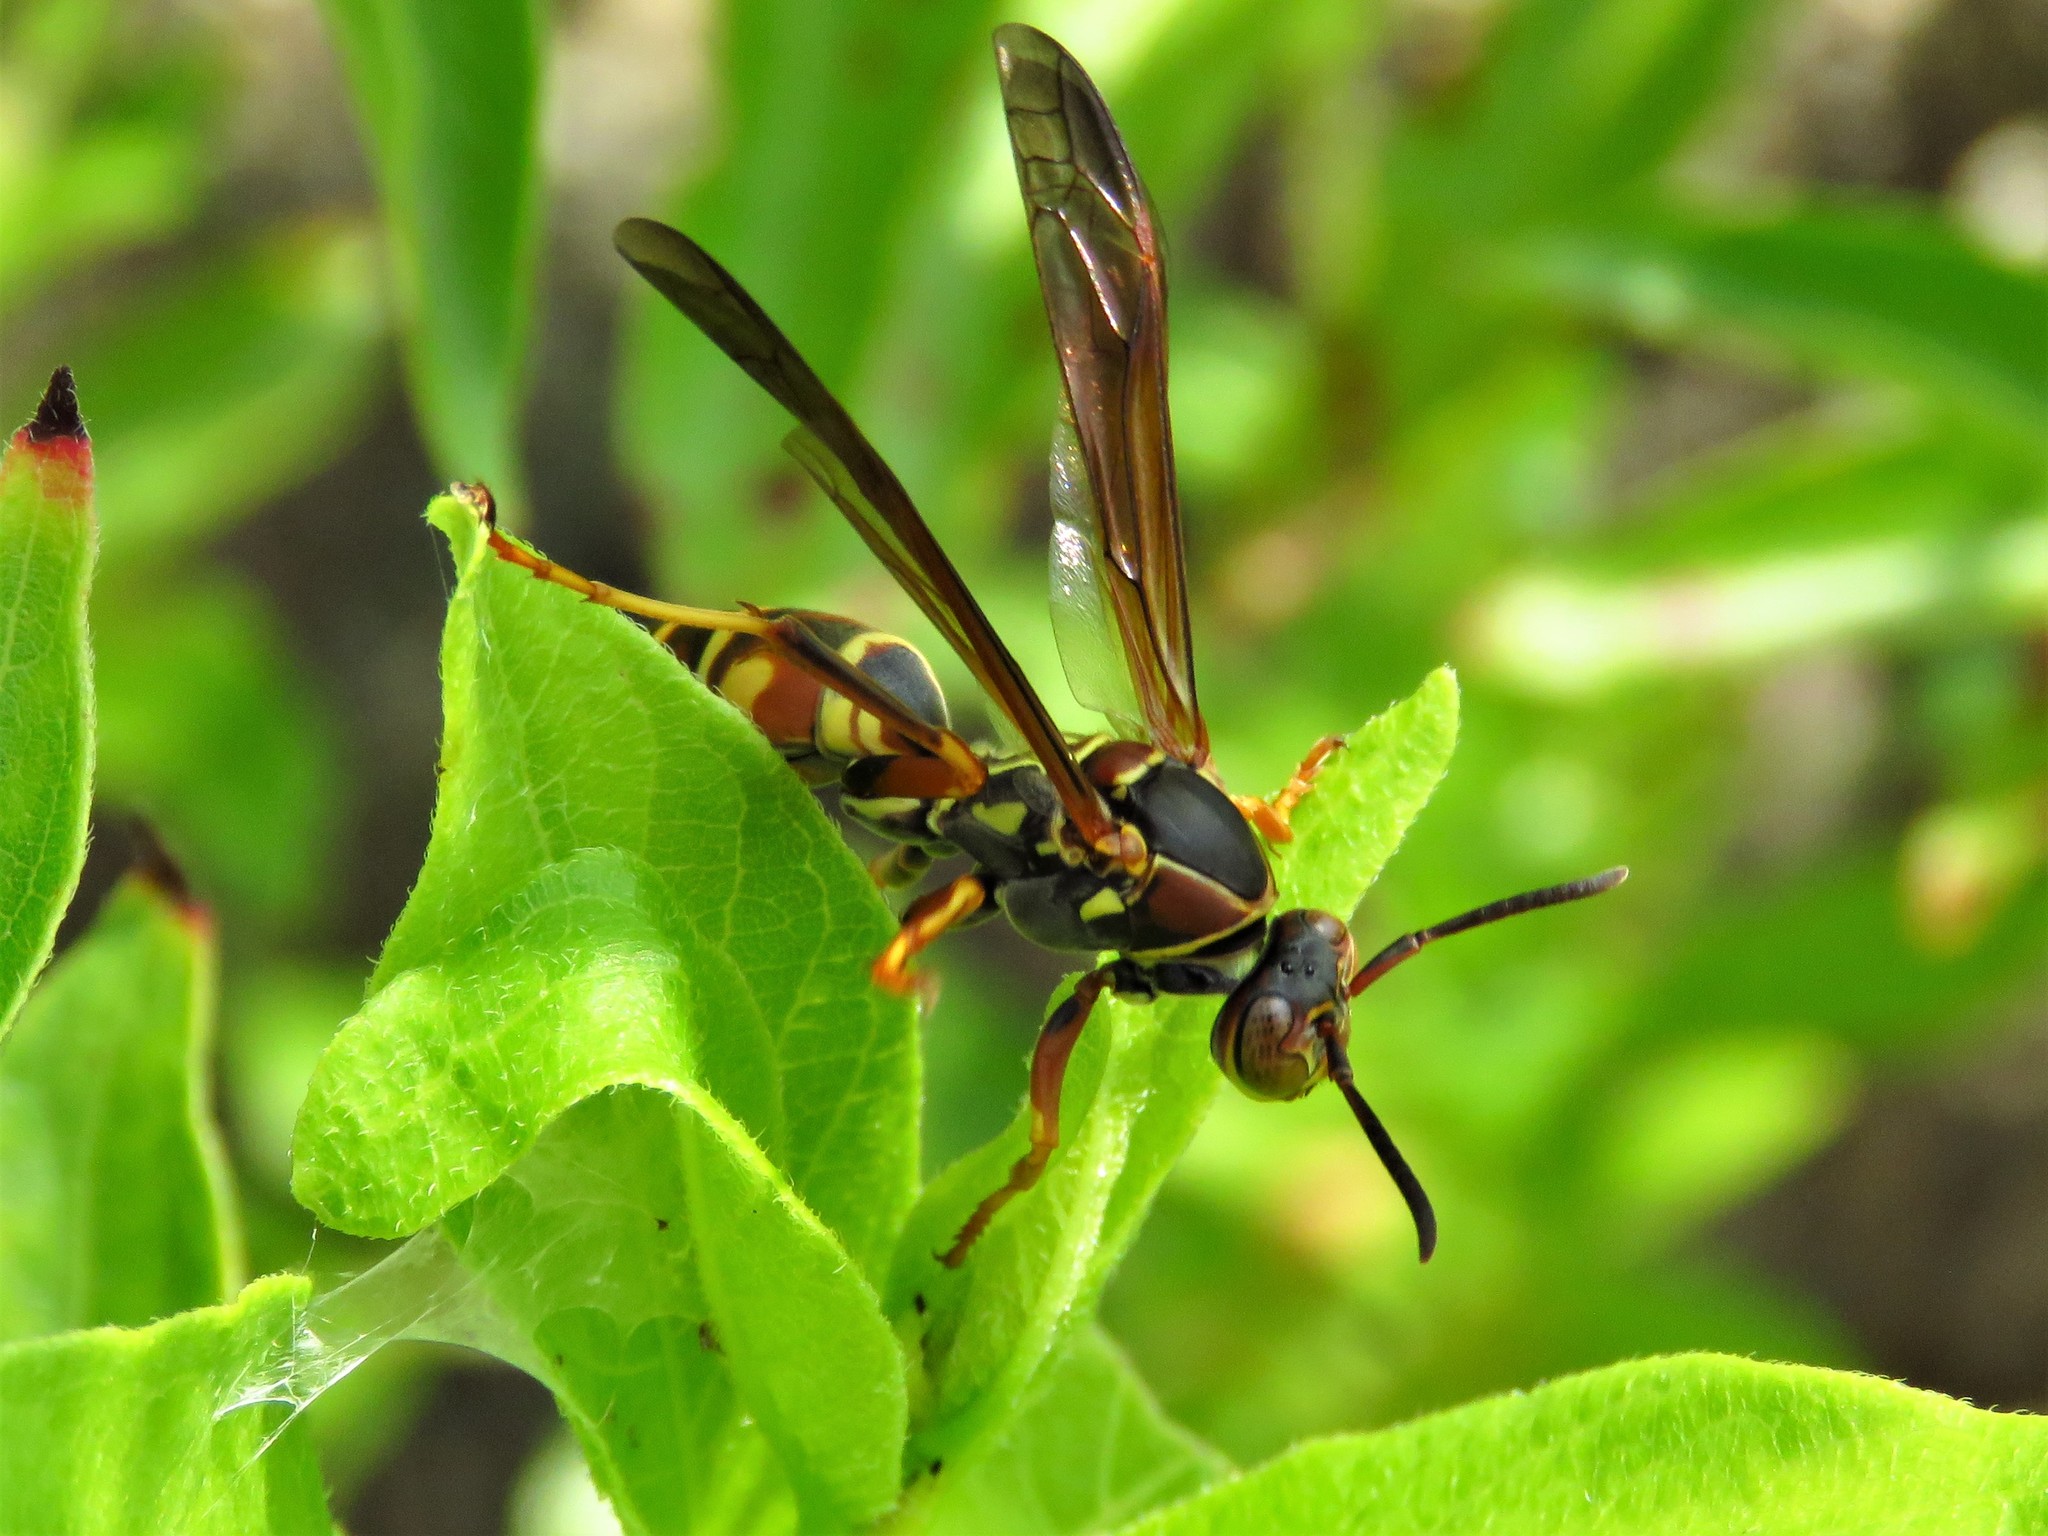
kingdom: Animalia
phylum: Arthropoda
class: Insecta
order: Hymenoptera
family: Eumenidae
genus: Polistes
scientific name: Polistes fuscatus
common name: Dark paper wasp
